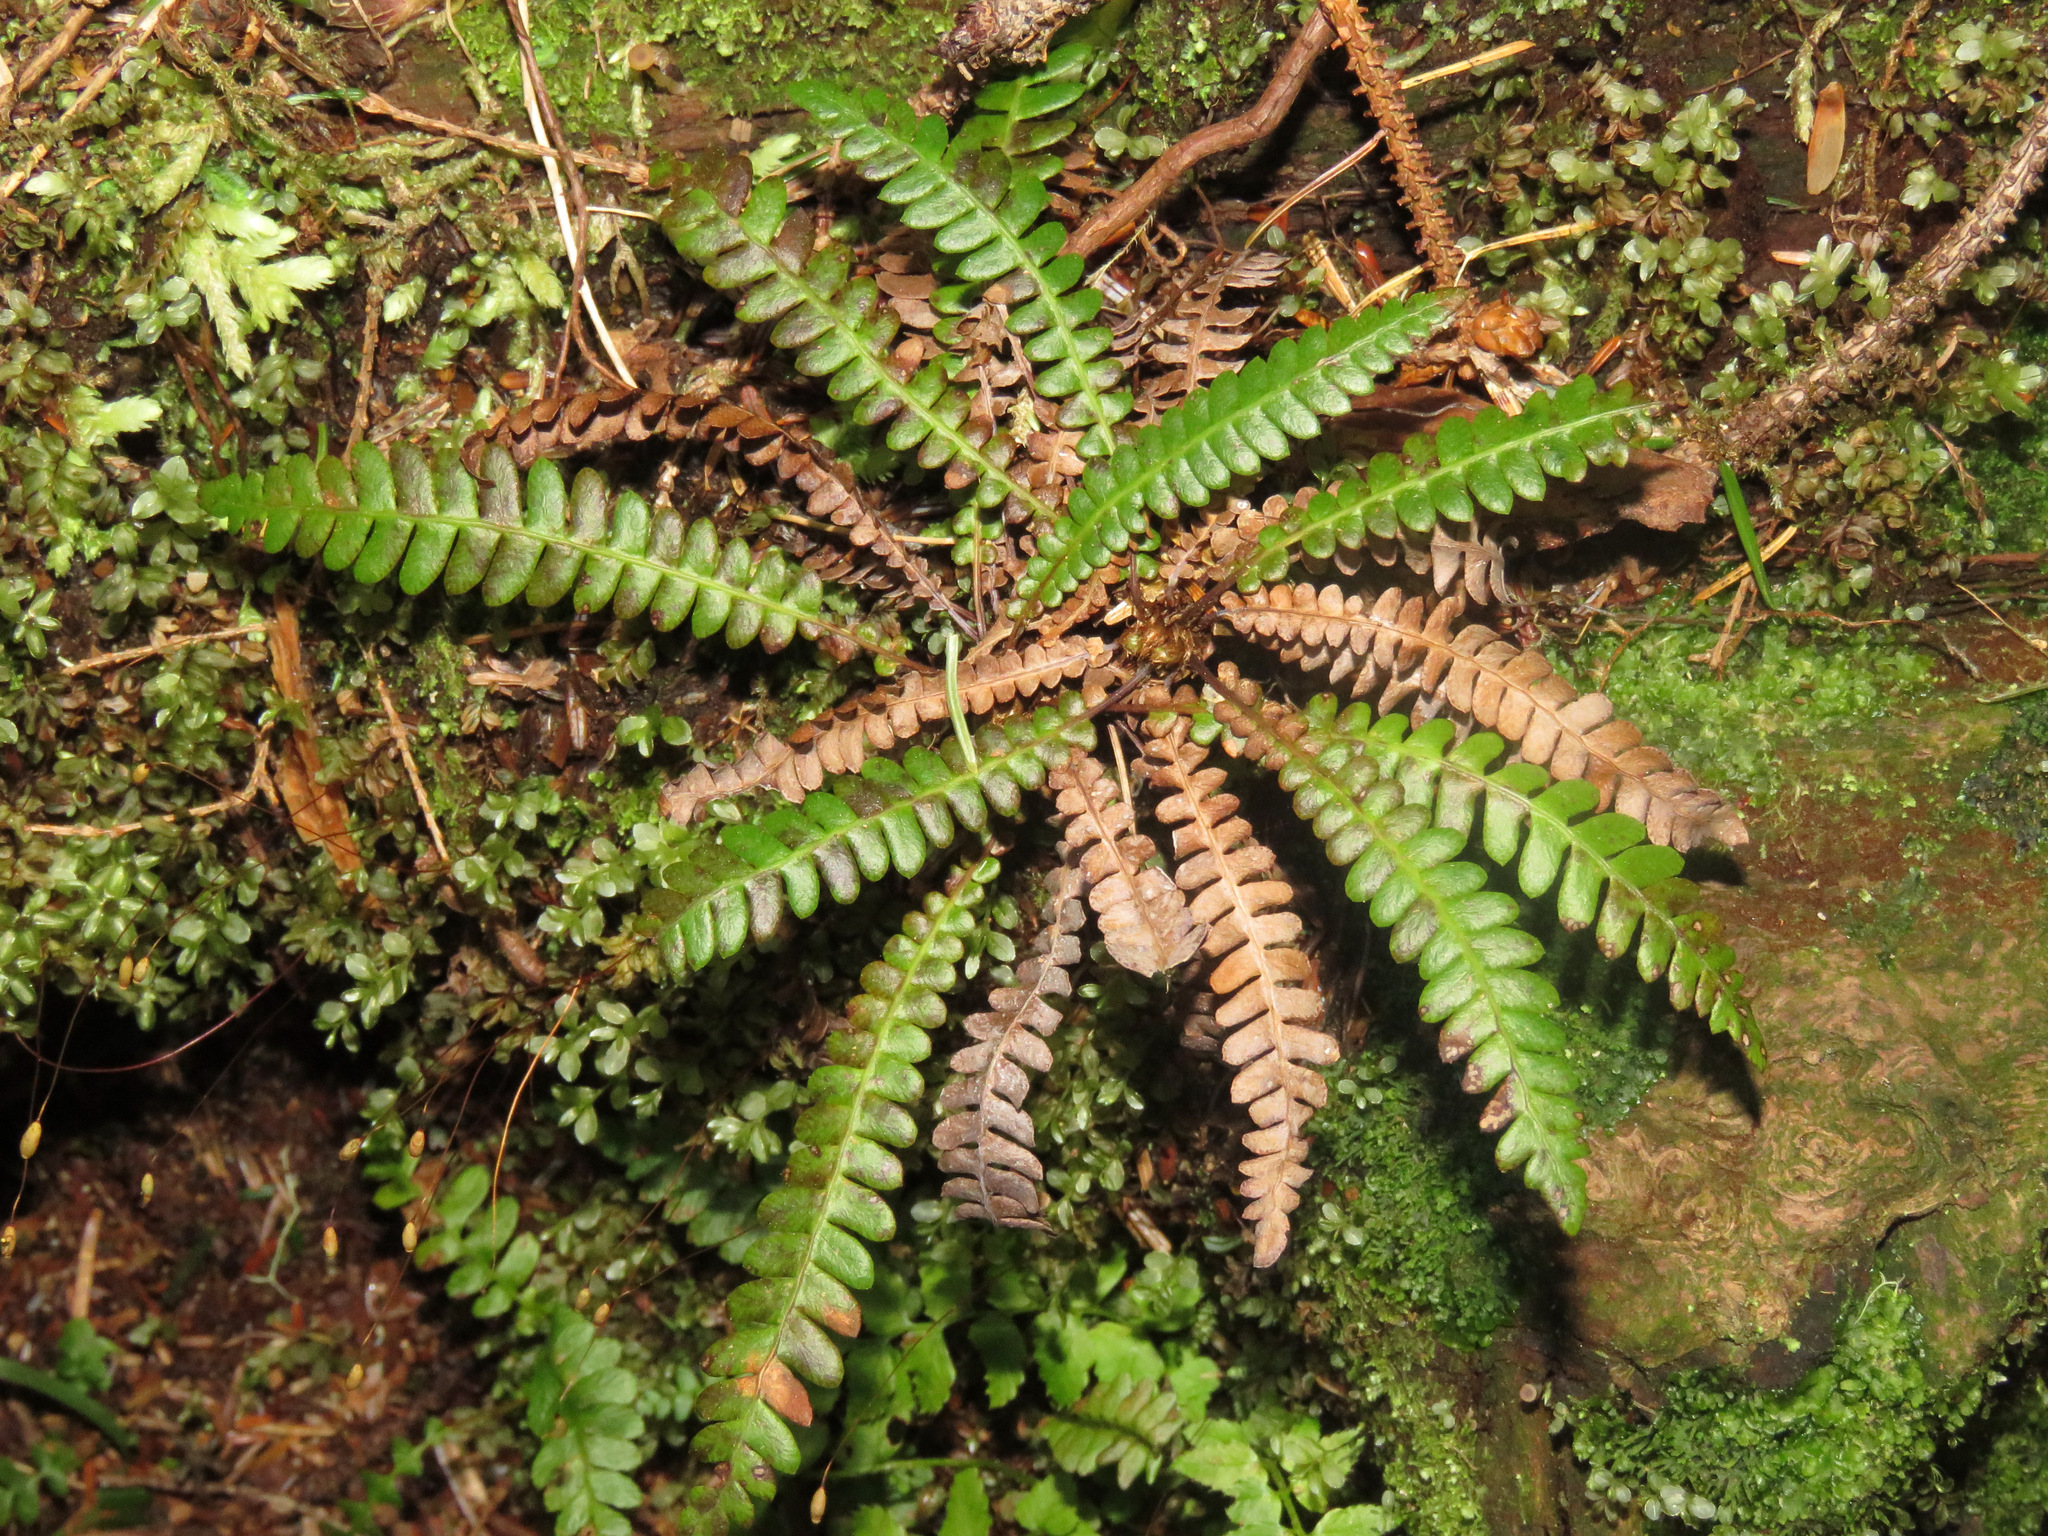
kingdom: Plantae
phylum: Tracheophyta
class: Polypodiopsida
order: Polypodiales
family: Blechnaceae
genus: Struthiopteris
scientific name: Struthiopteris spicant
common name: Deer fern
